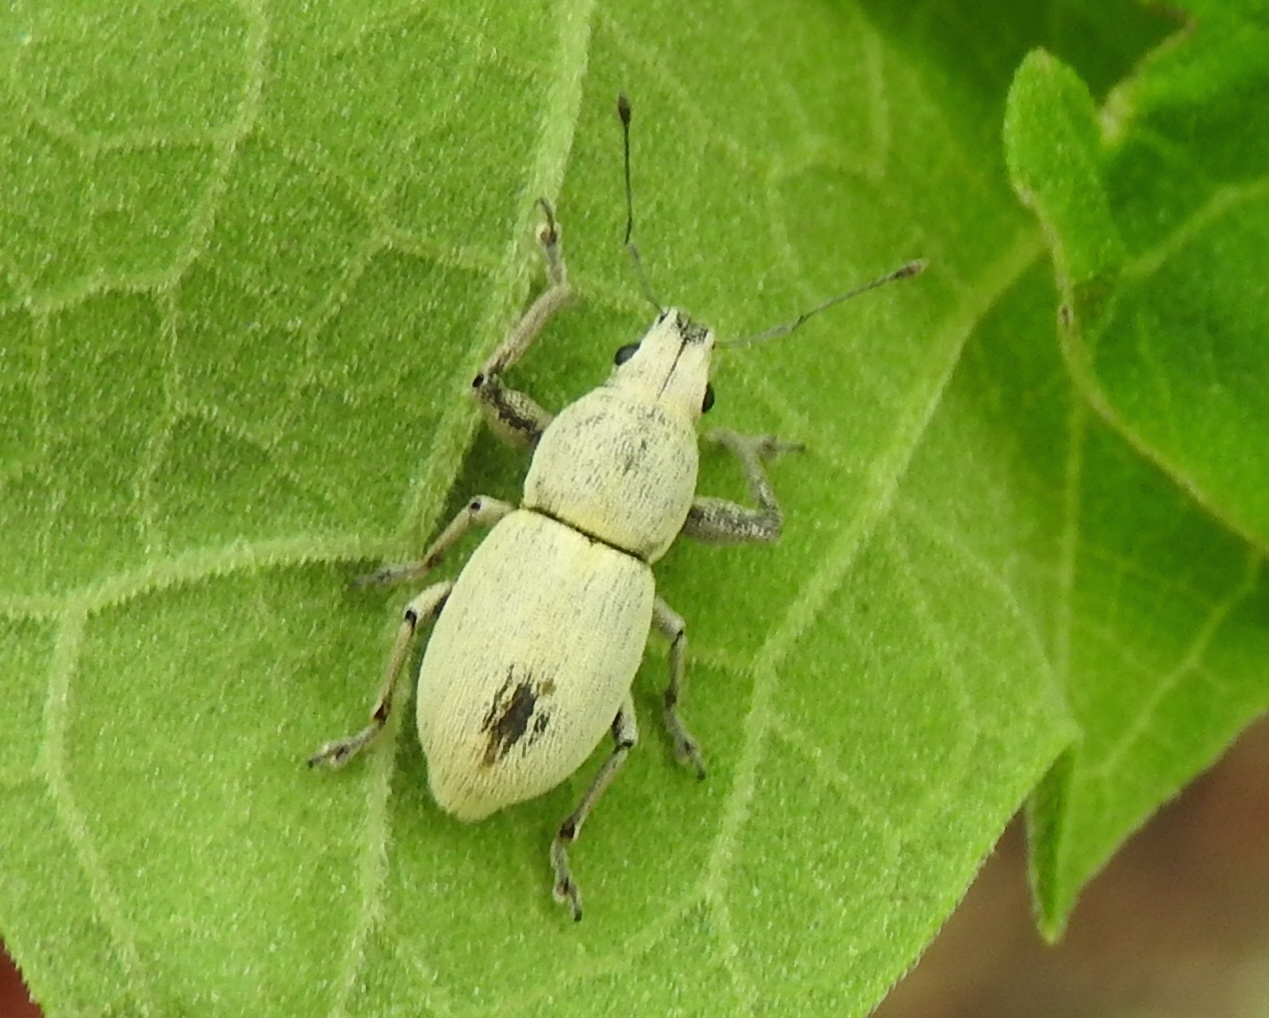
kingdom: Animalia
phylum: Arthropoda
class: Insecta
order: Coleoptera
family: Curculionidae
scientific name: Curculionidae
